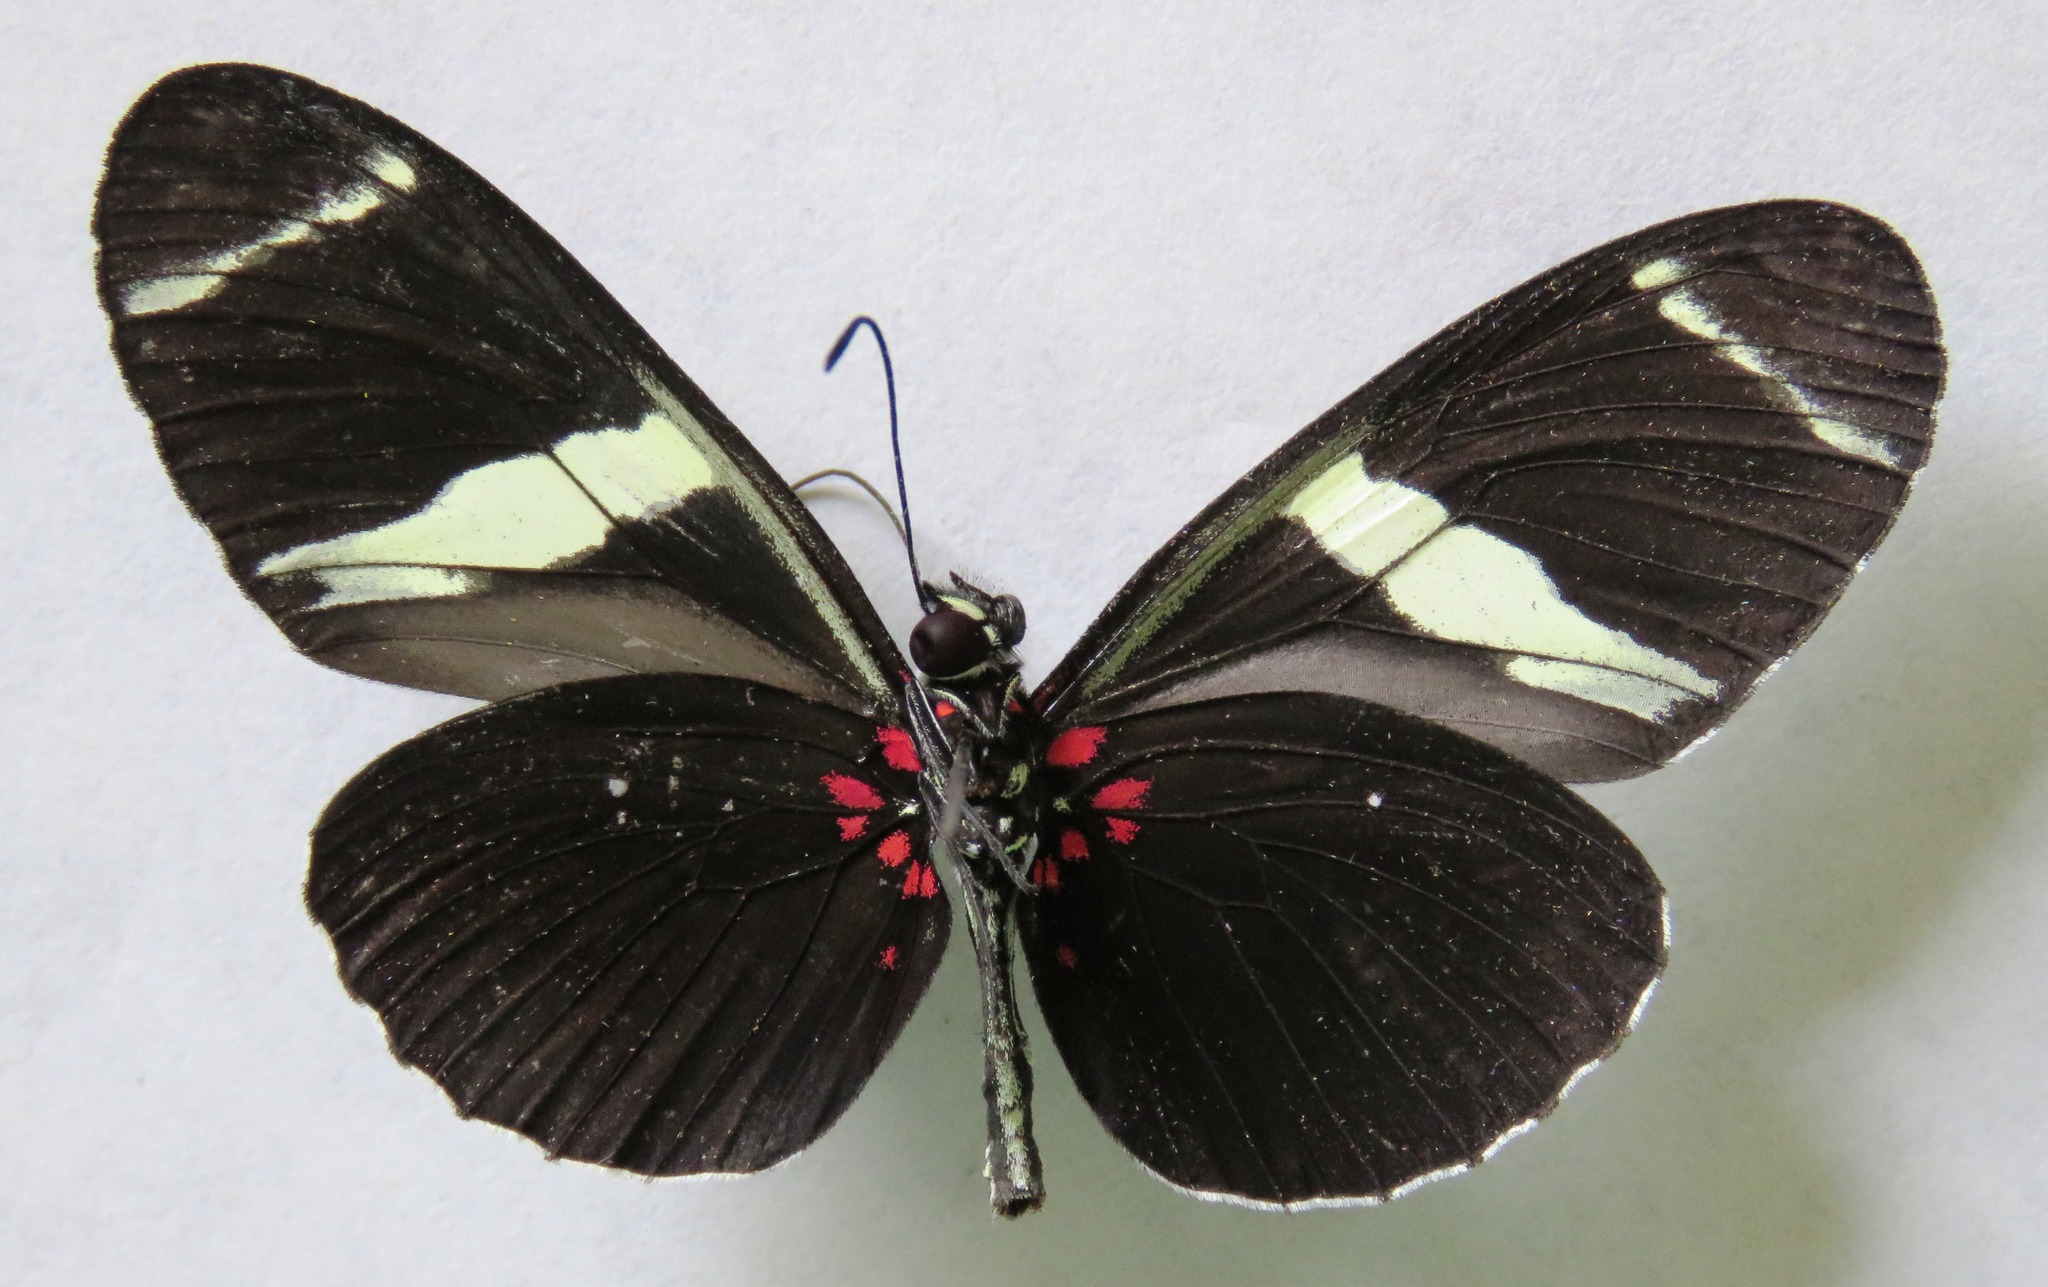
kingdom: Animalia
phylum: Arthropoda
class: Insecta
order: Lepidoptera
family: Nymphalidae
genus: Heliconius
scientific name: Heliconius sara
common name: Sara longwing
